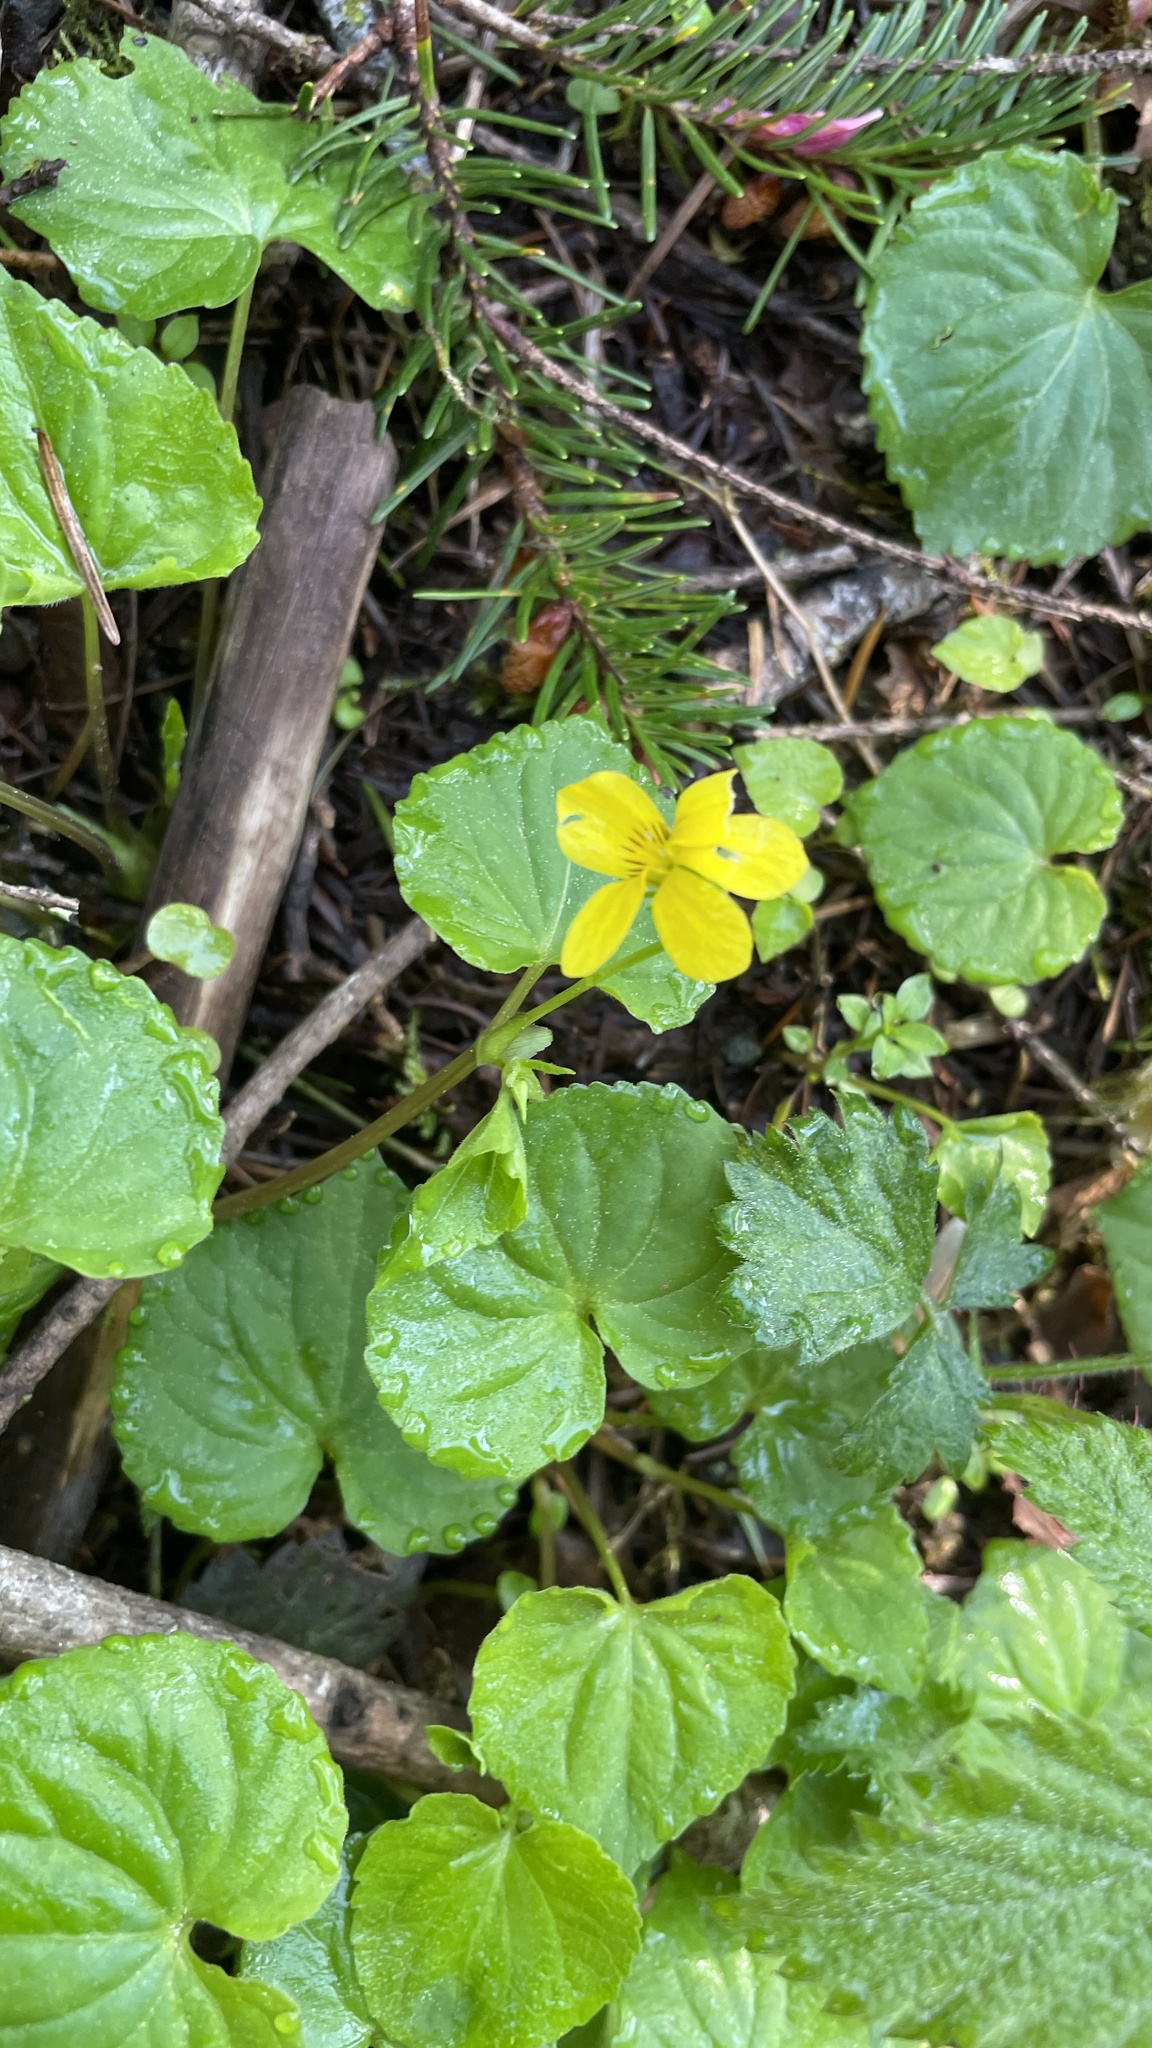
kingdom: Plantae
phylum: Tracheophyta
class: Magnoliopsida
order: Malpighiales
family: Violaceae
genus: Viola
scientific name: Viola glabella
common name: Stream violet
